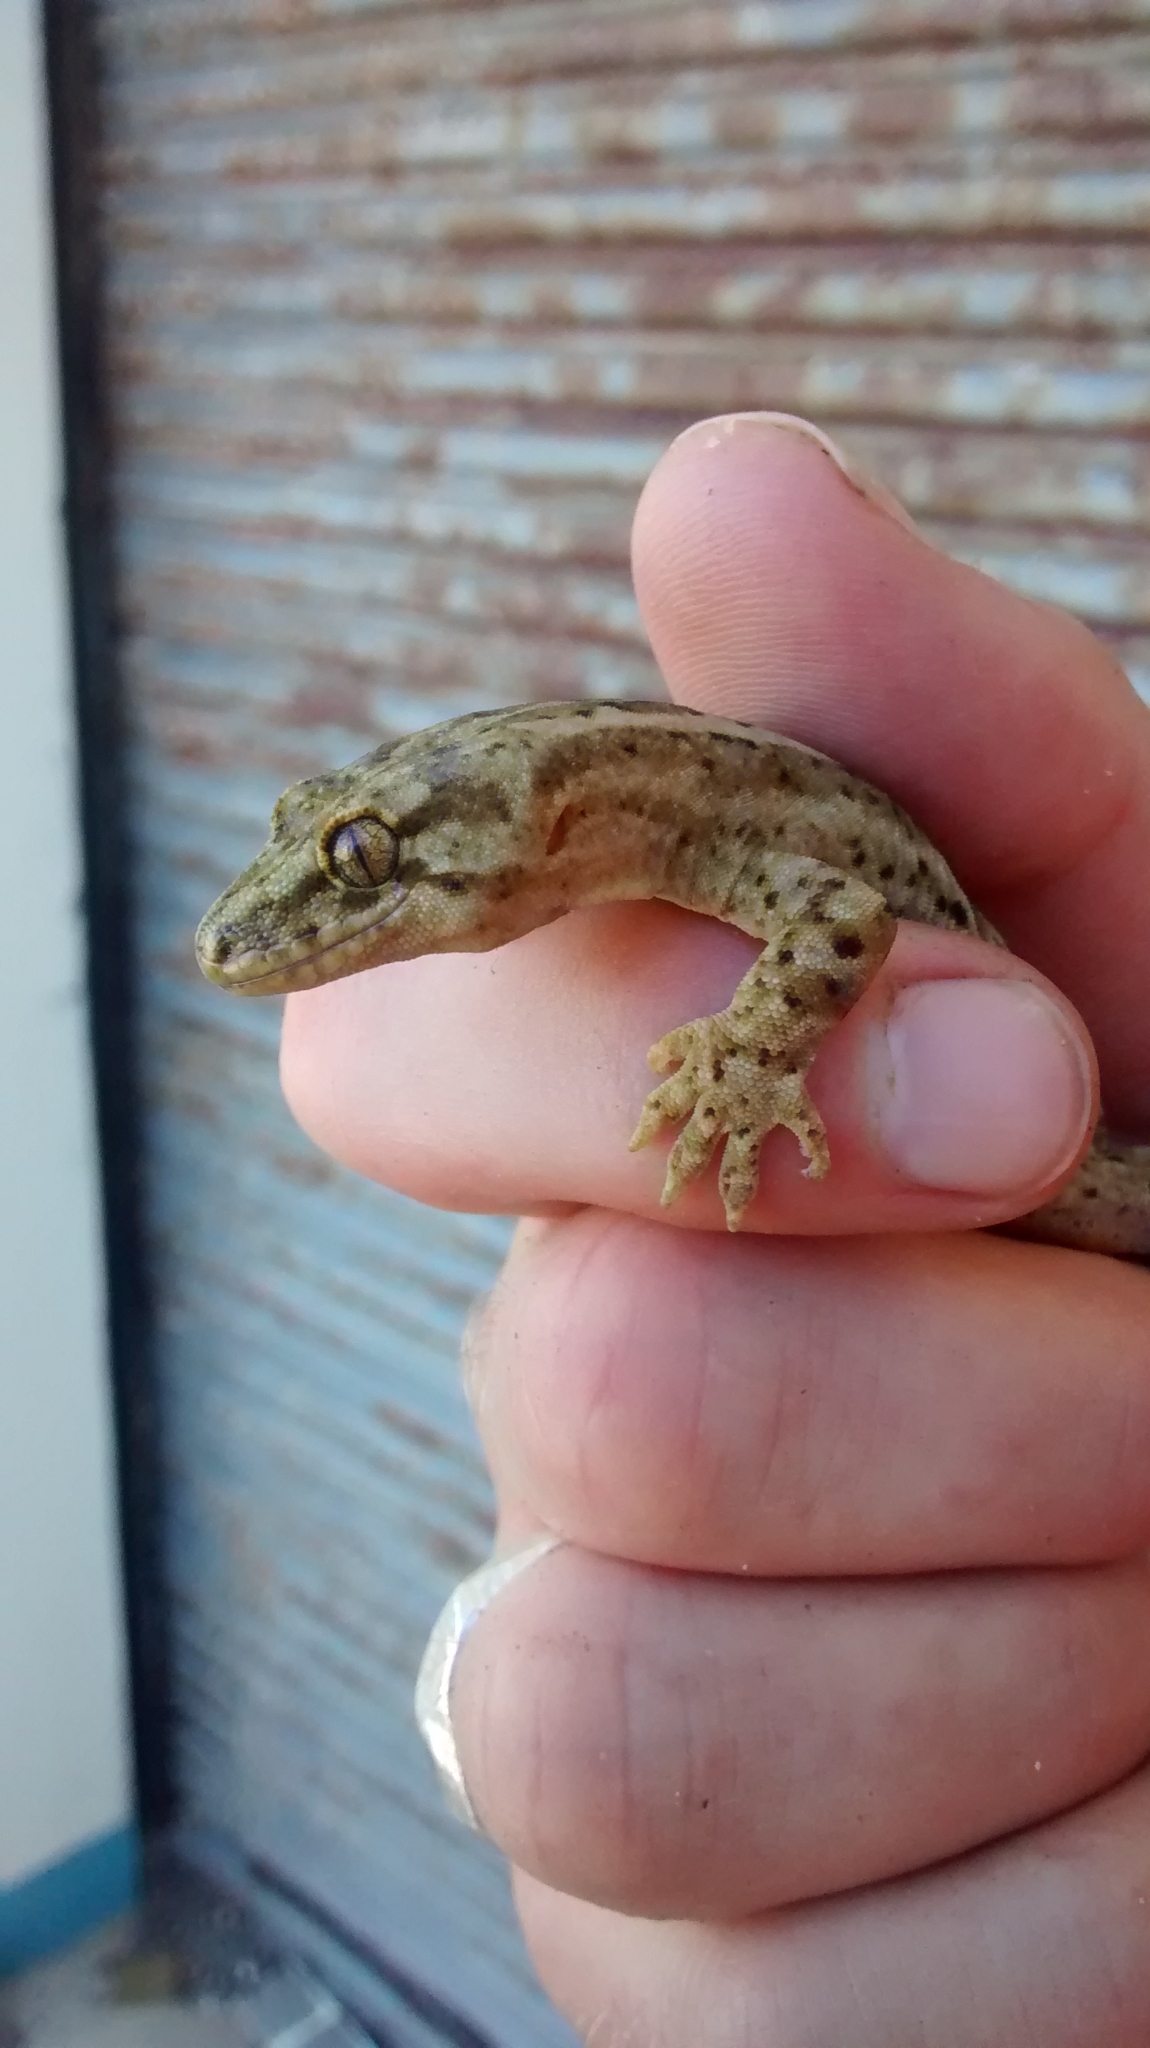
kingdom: Animalia
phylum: Chordata
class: Squamata
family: Diplodactylidae
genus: Woodworthia
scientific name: Woodworthia maculata
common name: Raukawa gecko
